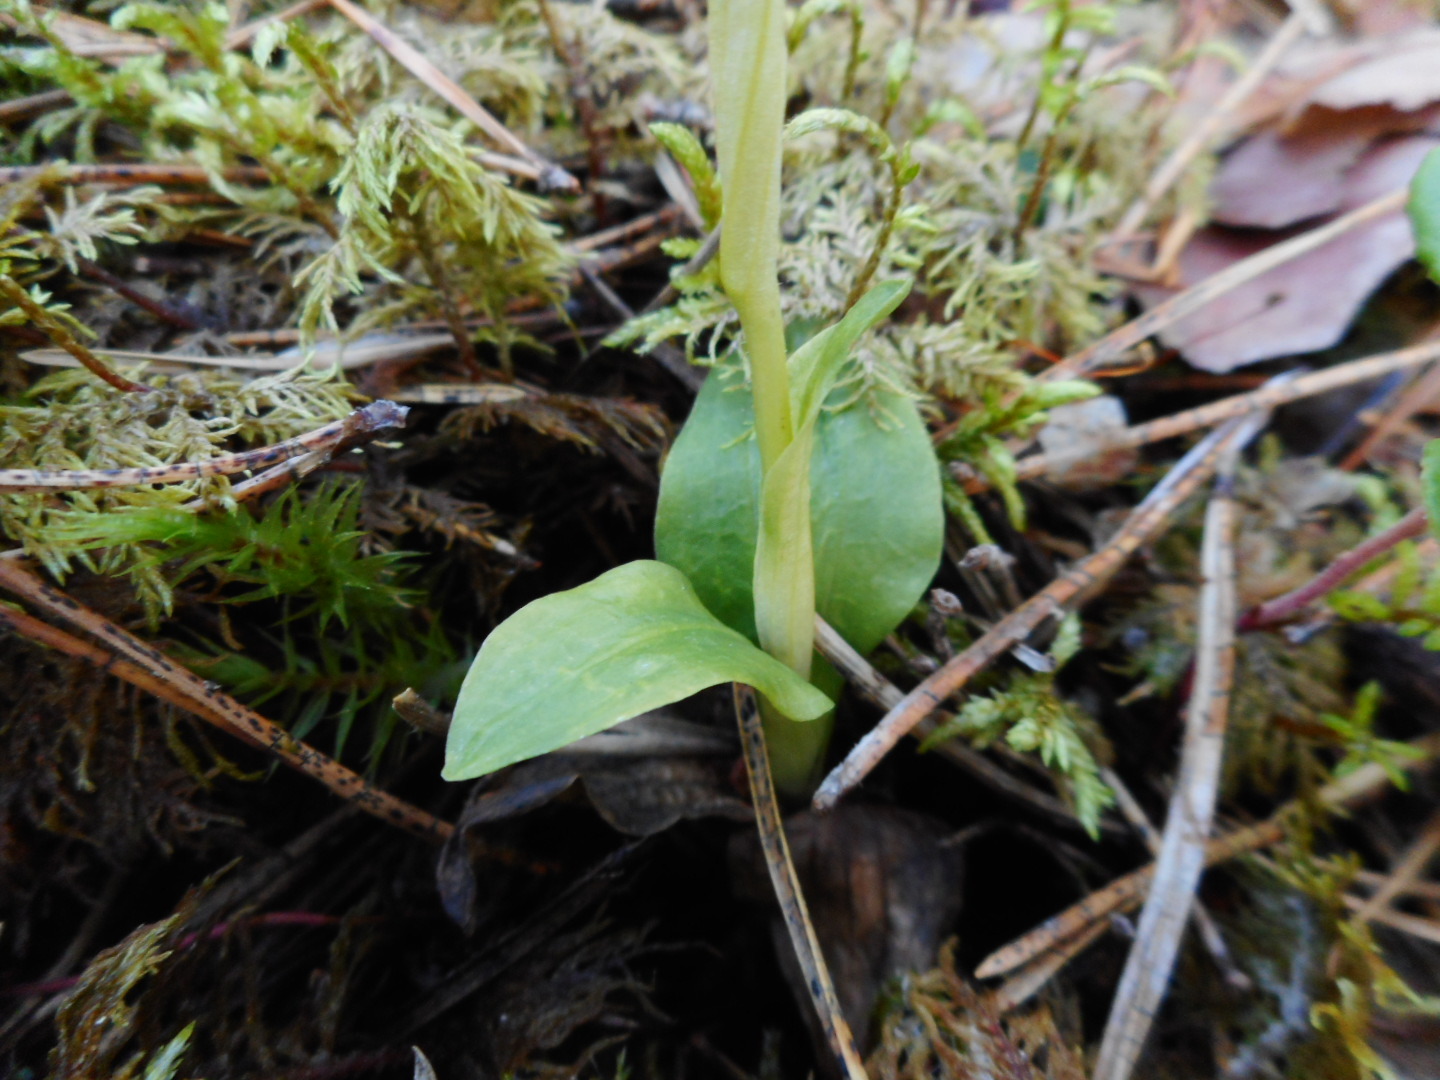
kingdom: Plantae
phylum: Tracheophyta
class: Liliopsida
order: Asparagales
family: Orchidaceae
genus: Goodyera
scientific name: Goodyera repens
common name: Creeping lady's-tresses
